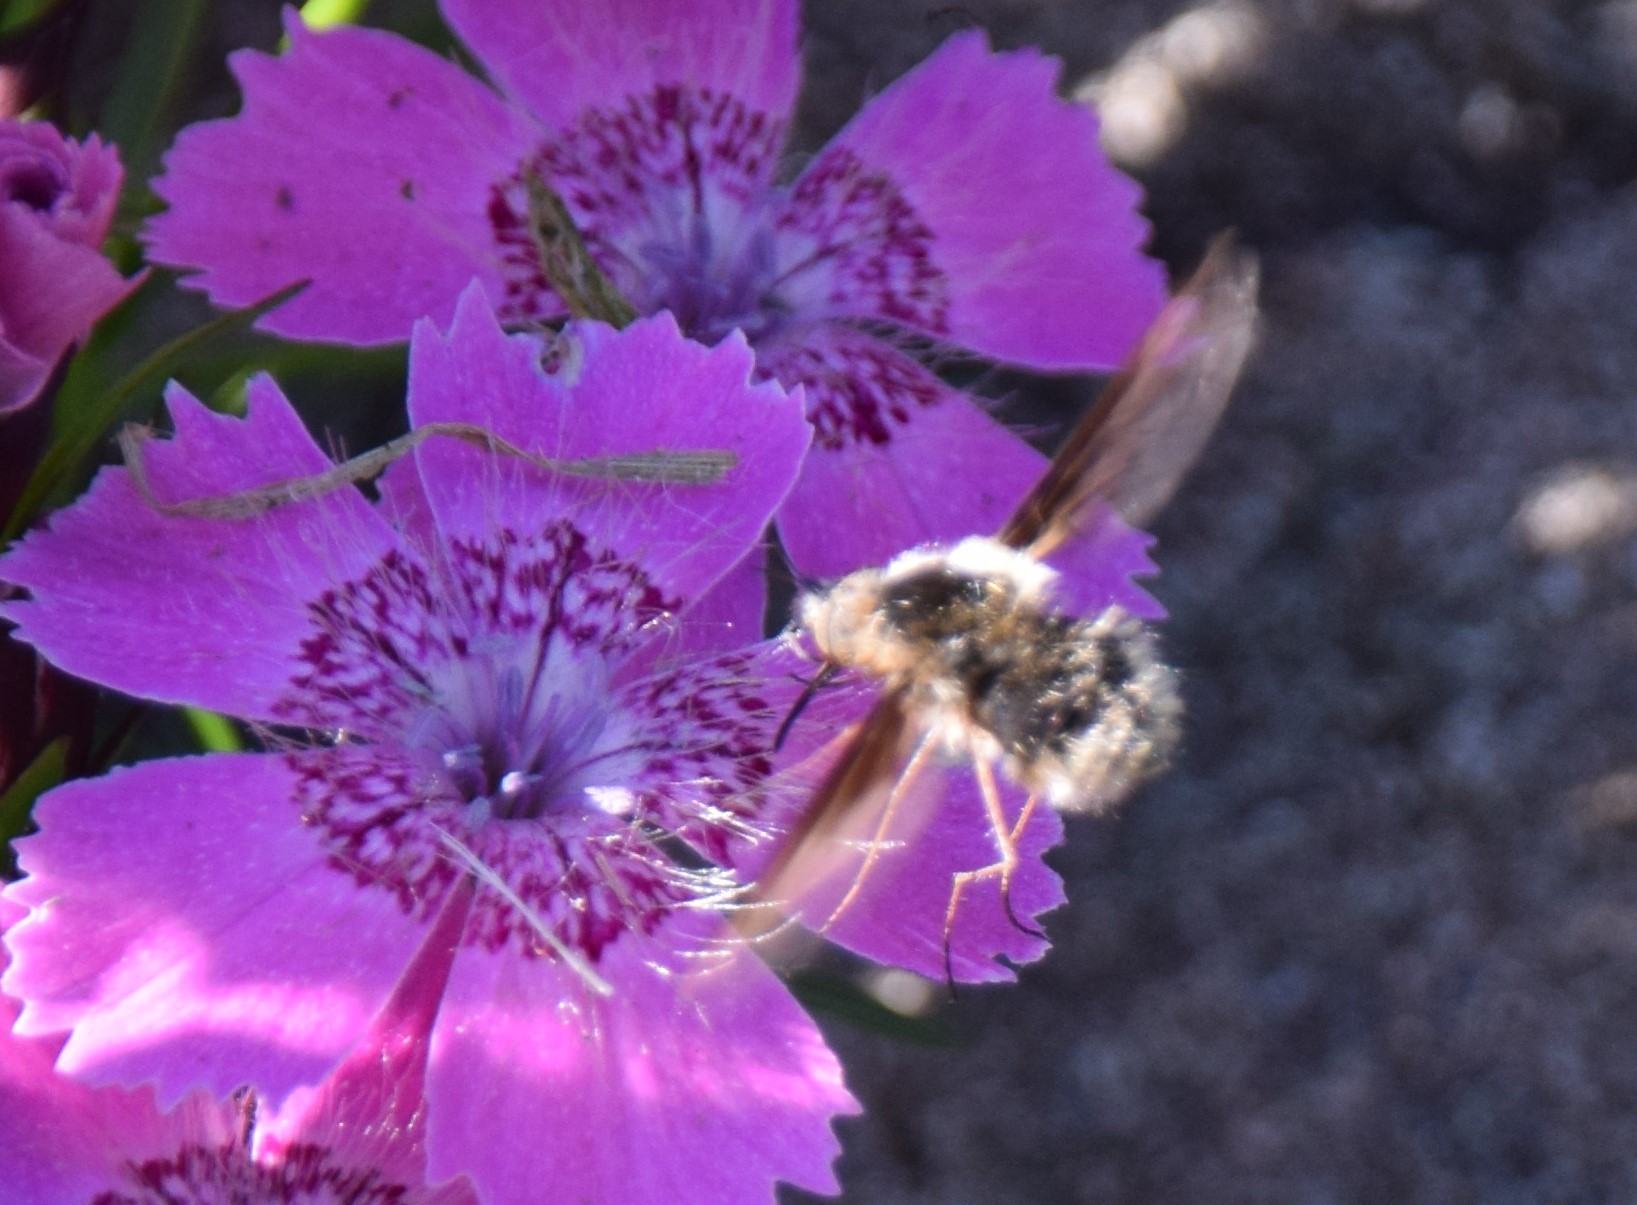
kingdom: Animalia
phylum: Arthropoda
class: Insecta
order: Diptera
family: Bombyliidae
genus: Bombylius
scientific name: Bombylius major
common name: Bee fly
